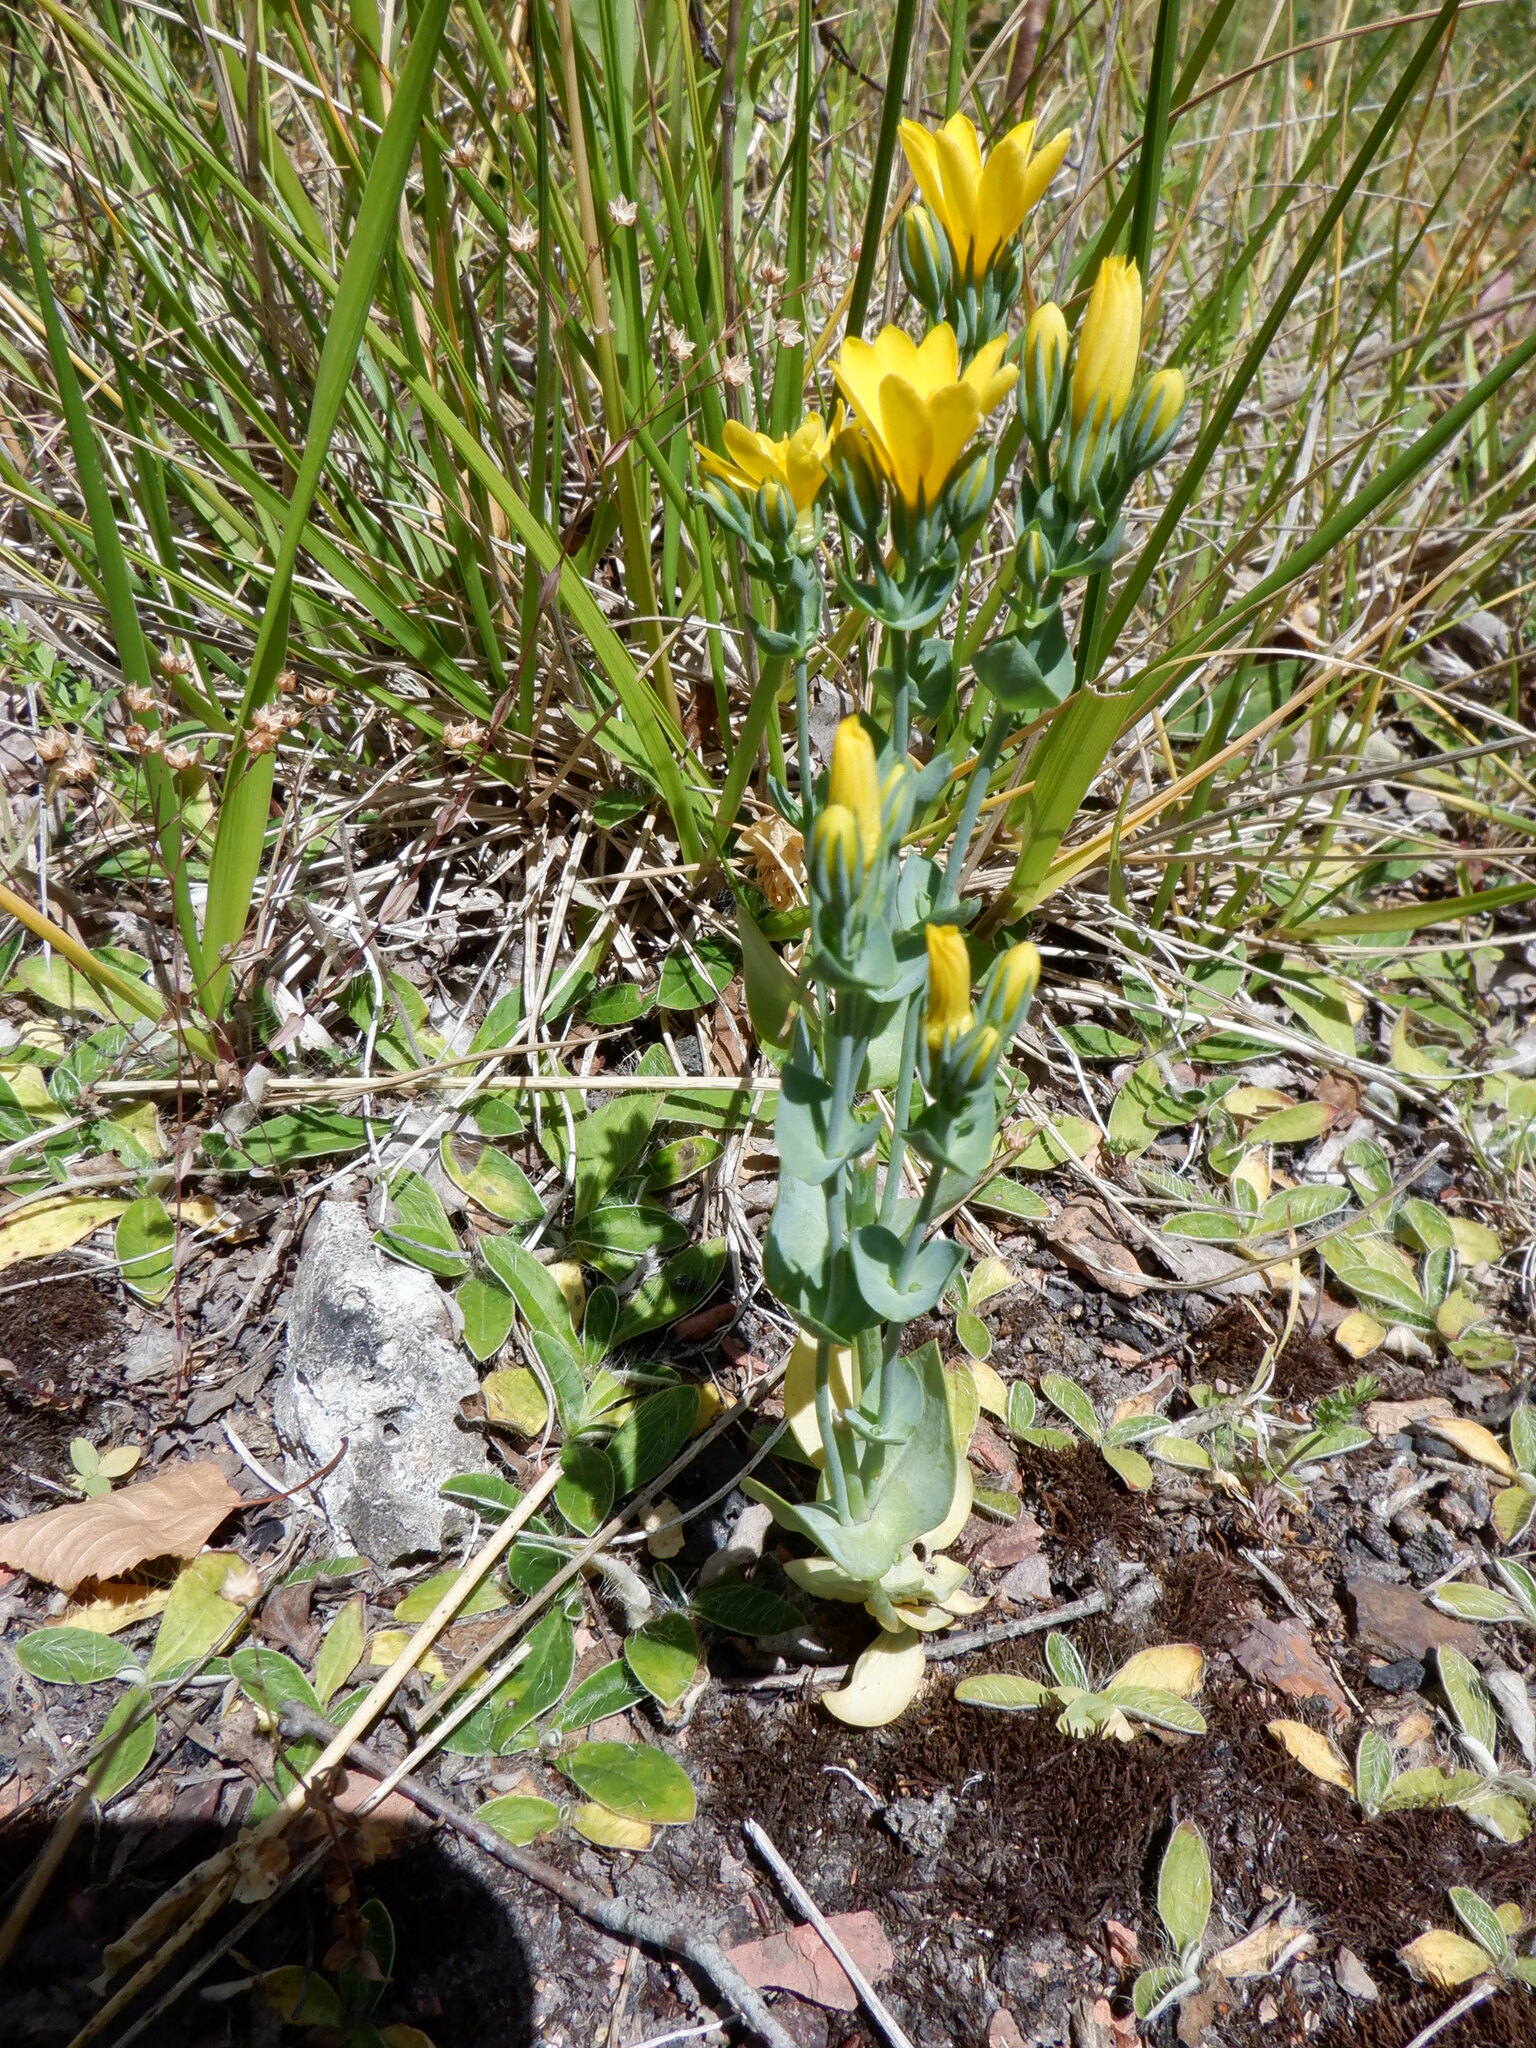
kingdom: Plantae
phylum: Tracheophyta
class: Magnoliopsida
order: Gentianales
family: Gentianaceae
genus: Blackstonia
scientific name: Blackstonia perfoliata
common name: Yellow-wort
